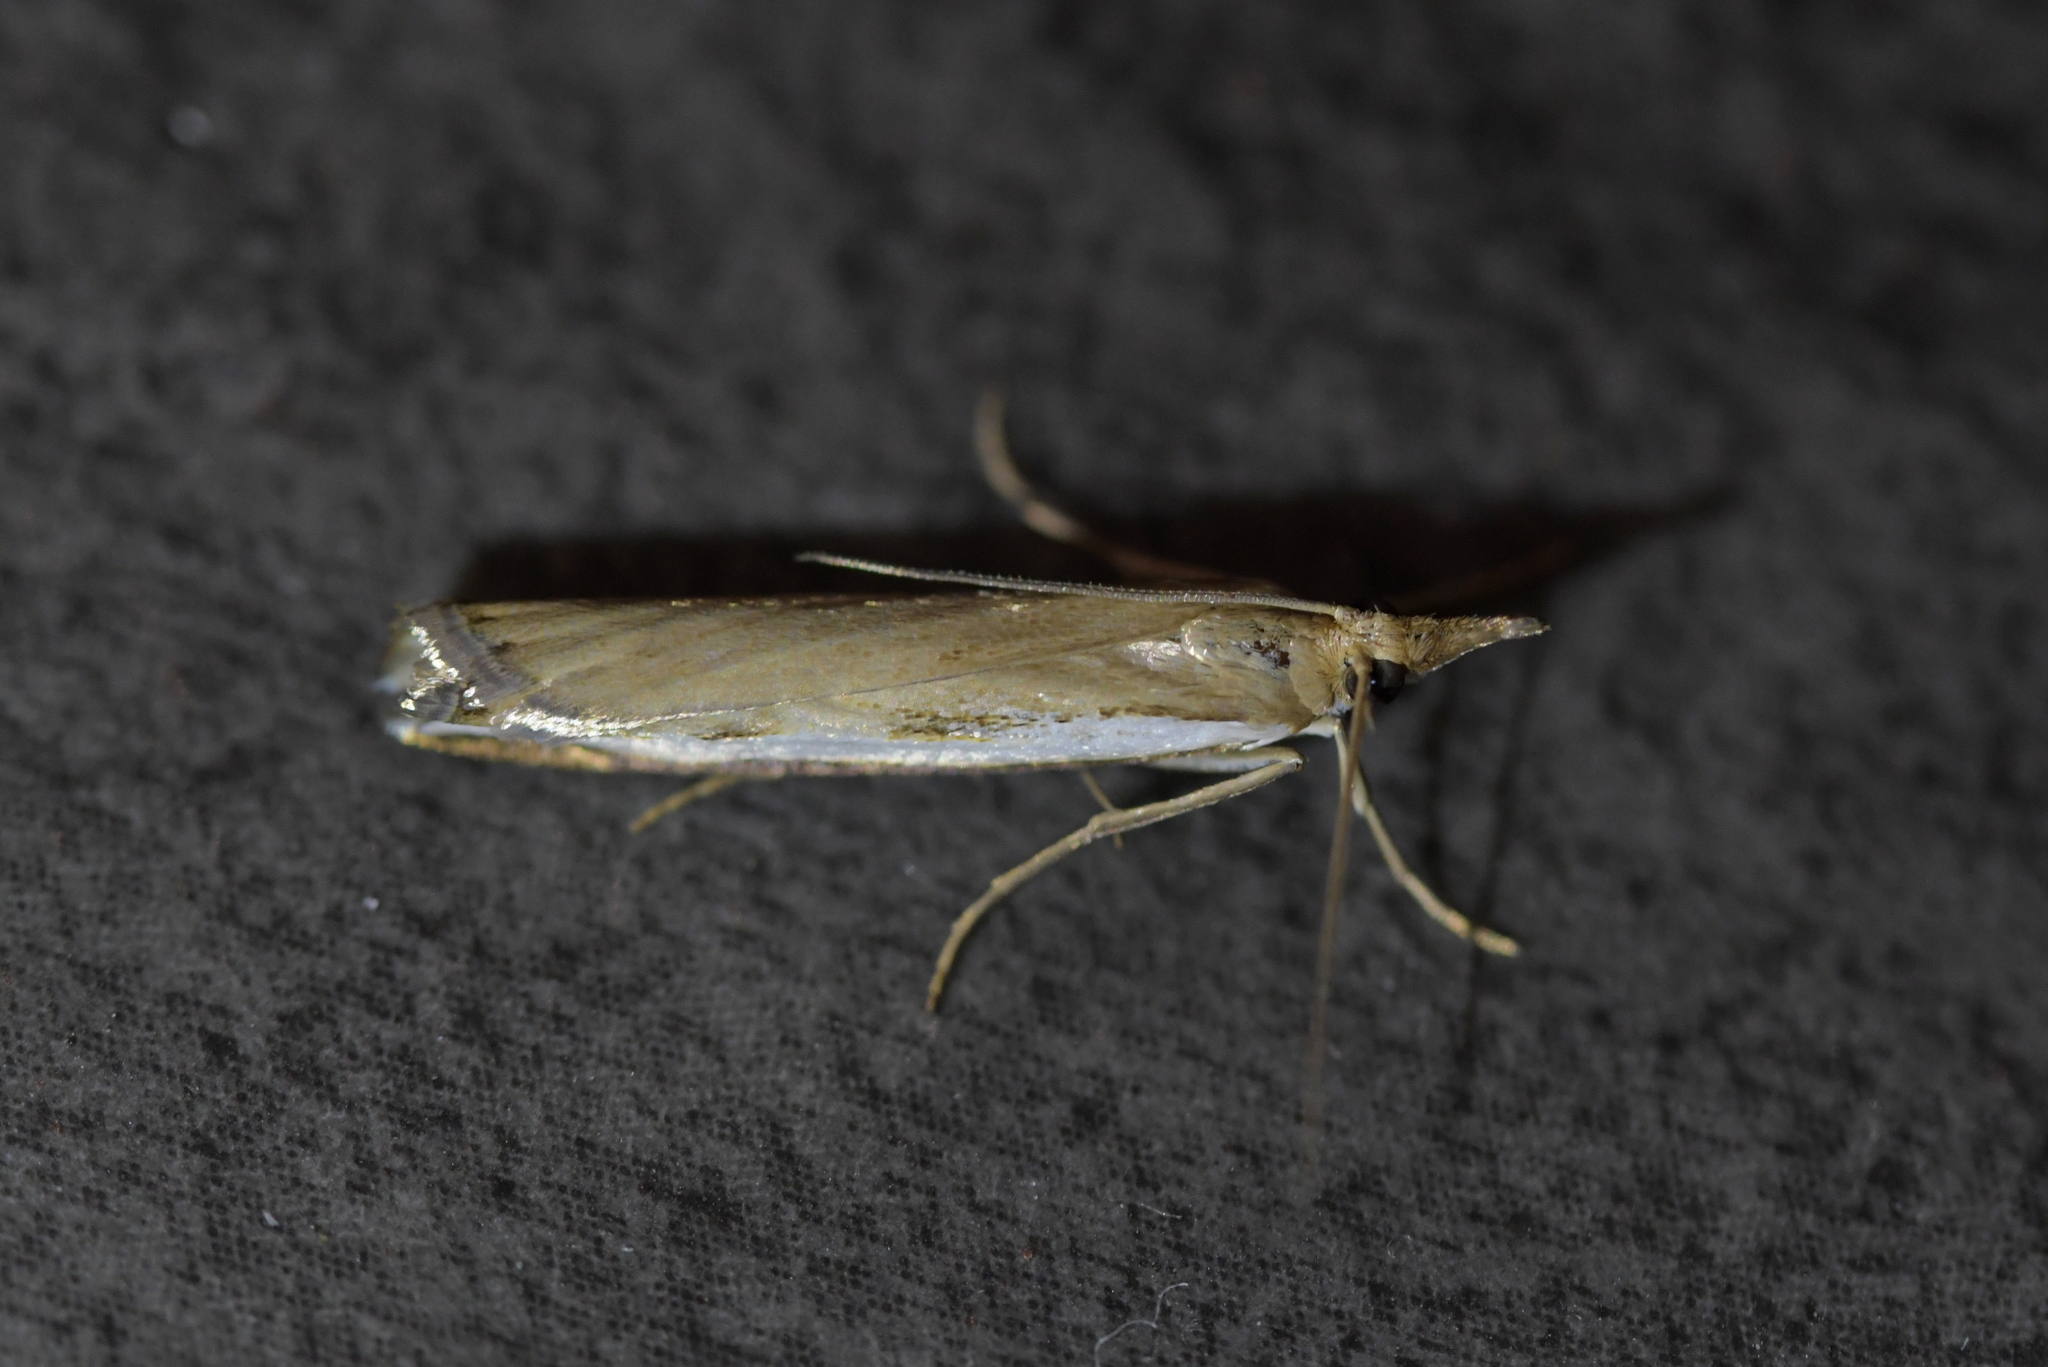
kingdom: Animalia
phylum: Arthropoda
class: Insecta
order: Lepidoptera
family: Crambidae
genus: Orocrambus
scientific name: Orocrambus flexuosellus
